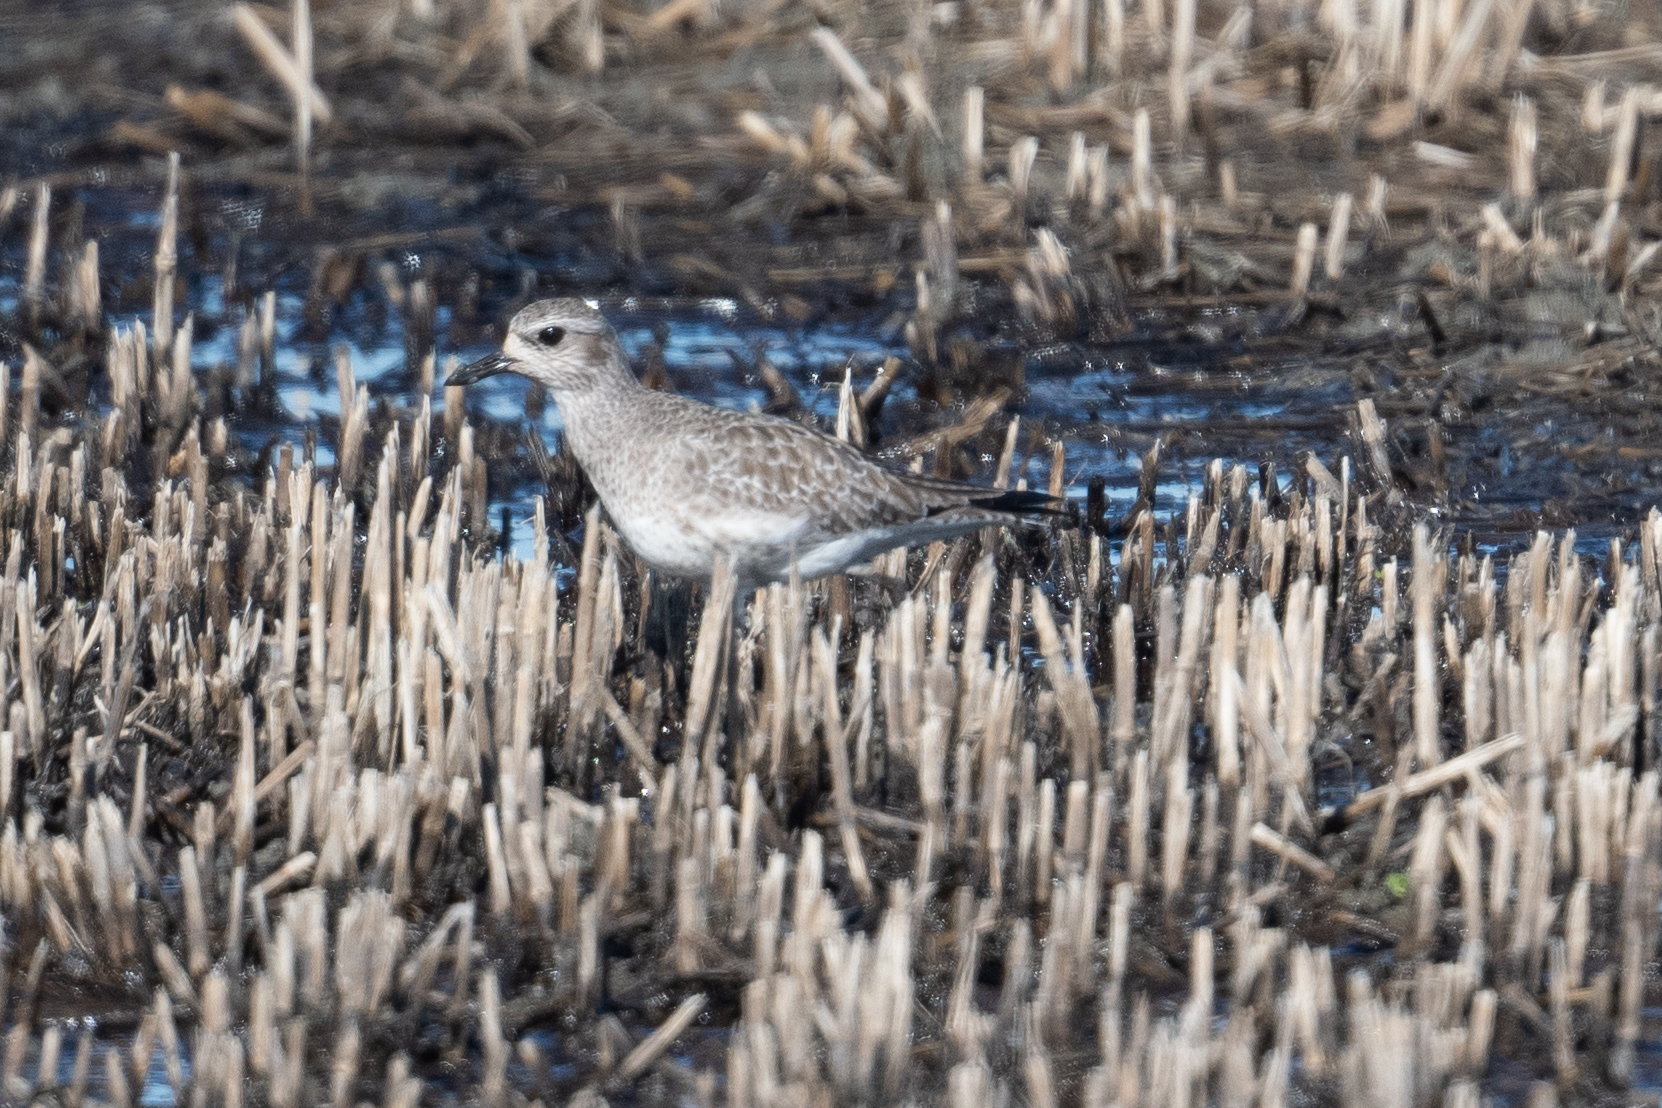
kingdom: Animalia
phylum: Chordata
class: Aves
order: Charadriiformes
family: Charadriidae
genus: Pluvialis
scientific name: Pluvialis squatarola
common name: Grey plover
